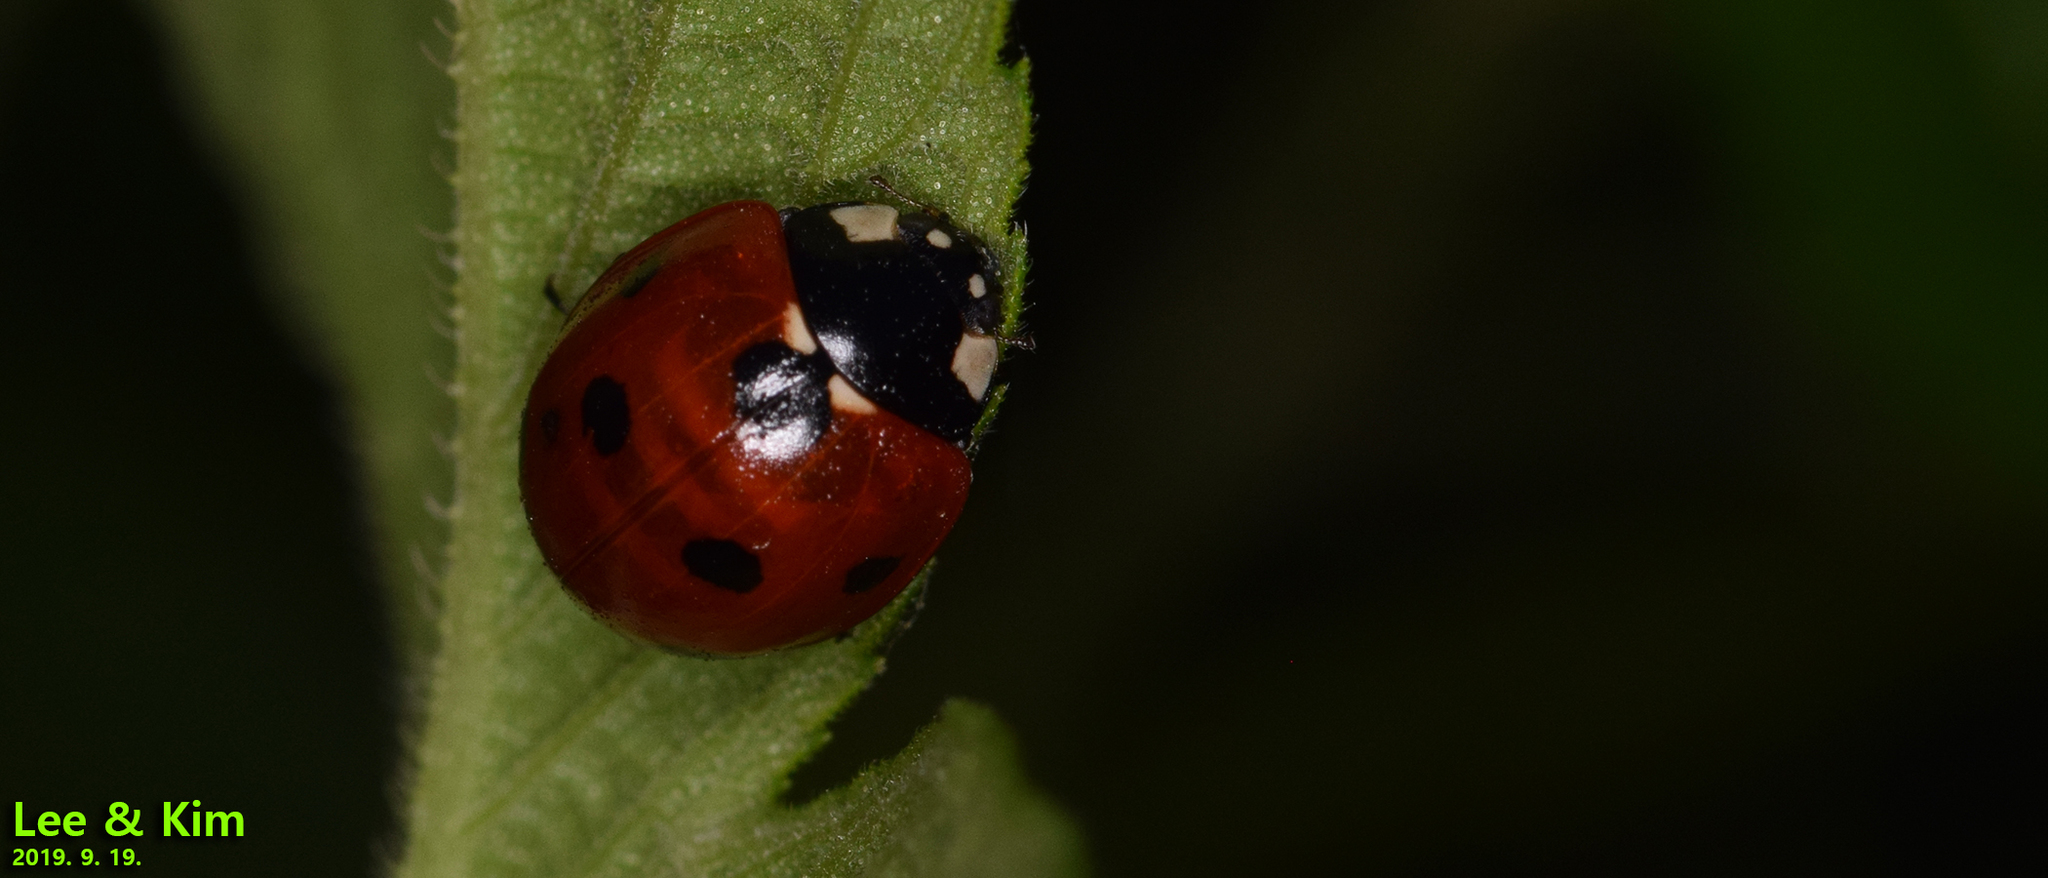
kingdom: Animalia
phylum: Arthropoda
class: Insecta
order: Coleoptera
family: Coccinellidae
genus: Coccinella
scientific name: Coccinella septempunctata
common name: Sevenspotted lady beetle
